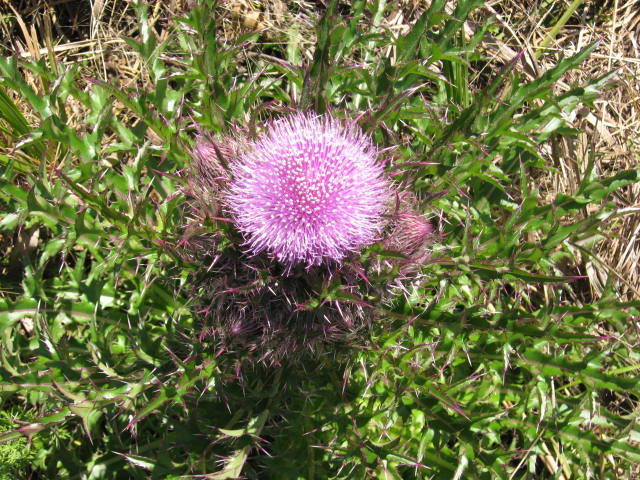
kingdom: Plantae
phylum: Tracheophyta
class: Magnoliopsida
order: Asterales
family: Asteraceae
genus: Cirsium
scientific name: Cirsium horridulum
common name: Bristly thistle
